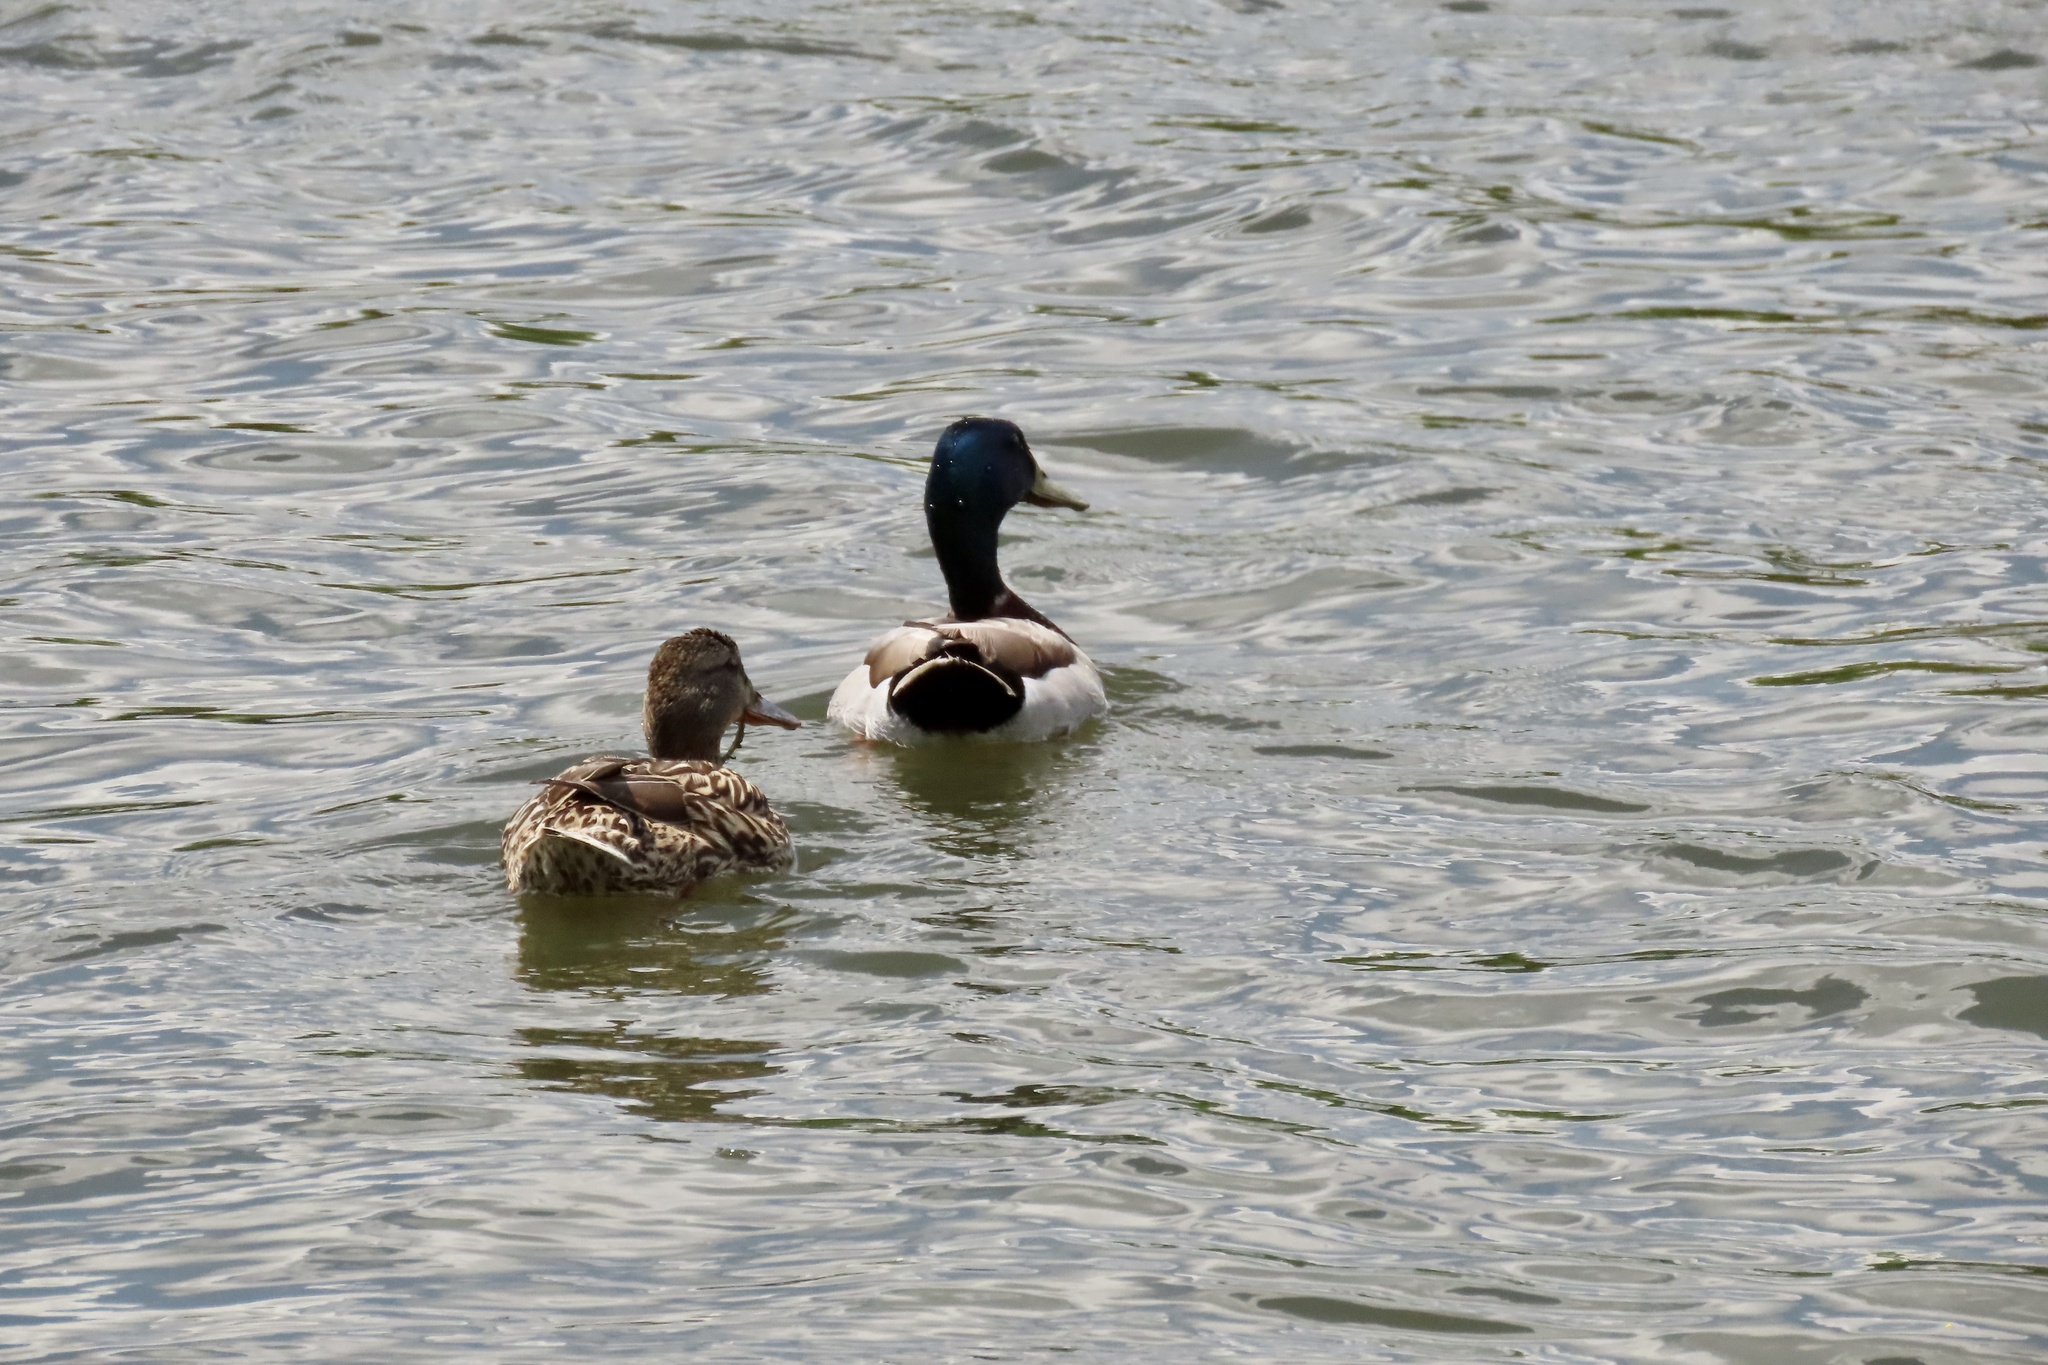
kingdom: Animalia
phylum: Chordata
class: Aves
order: Anseriformes
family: Anatidae
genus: Anas
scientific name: Anas platyrhynchos
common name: Mallard
